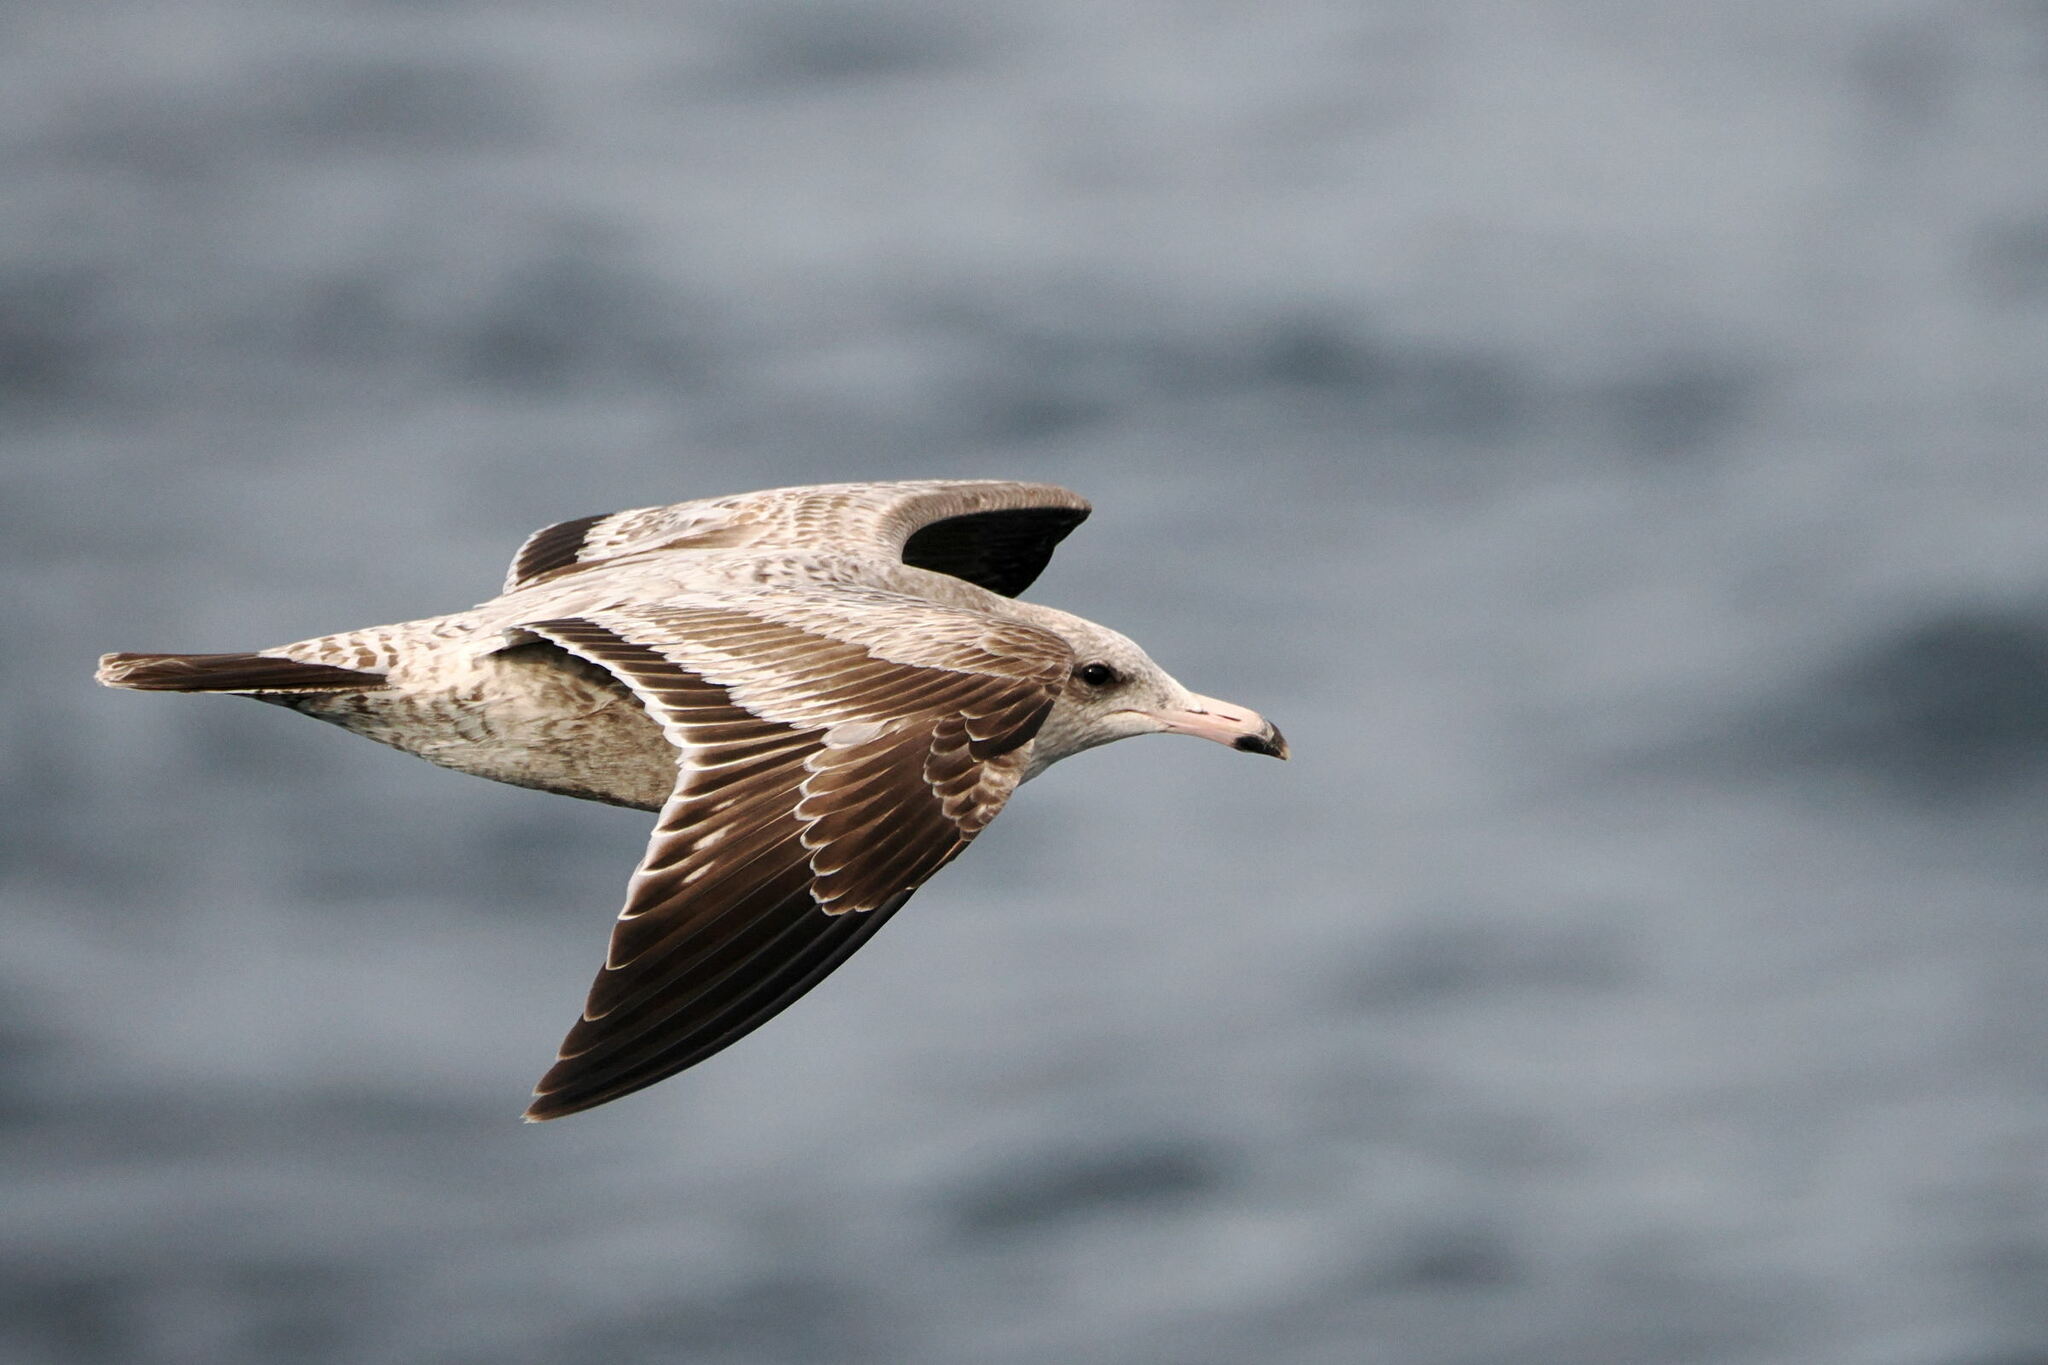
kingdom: Animalia
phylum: Chordata
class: Aves
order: Charadriiformes
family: Laridae
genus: Larus
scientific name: Larus californicus
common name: California gull
